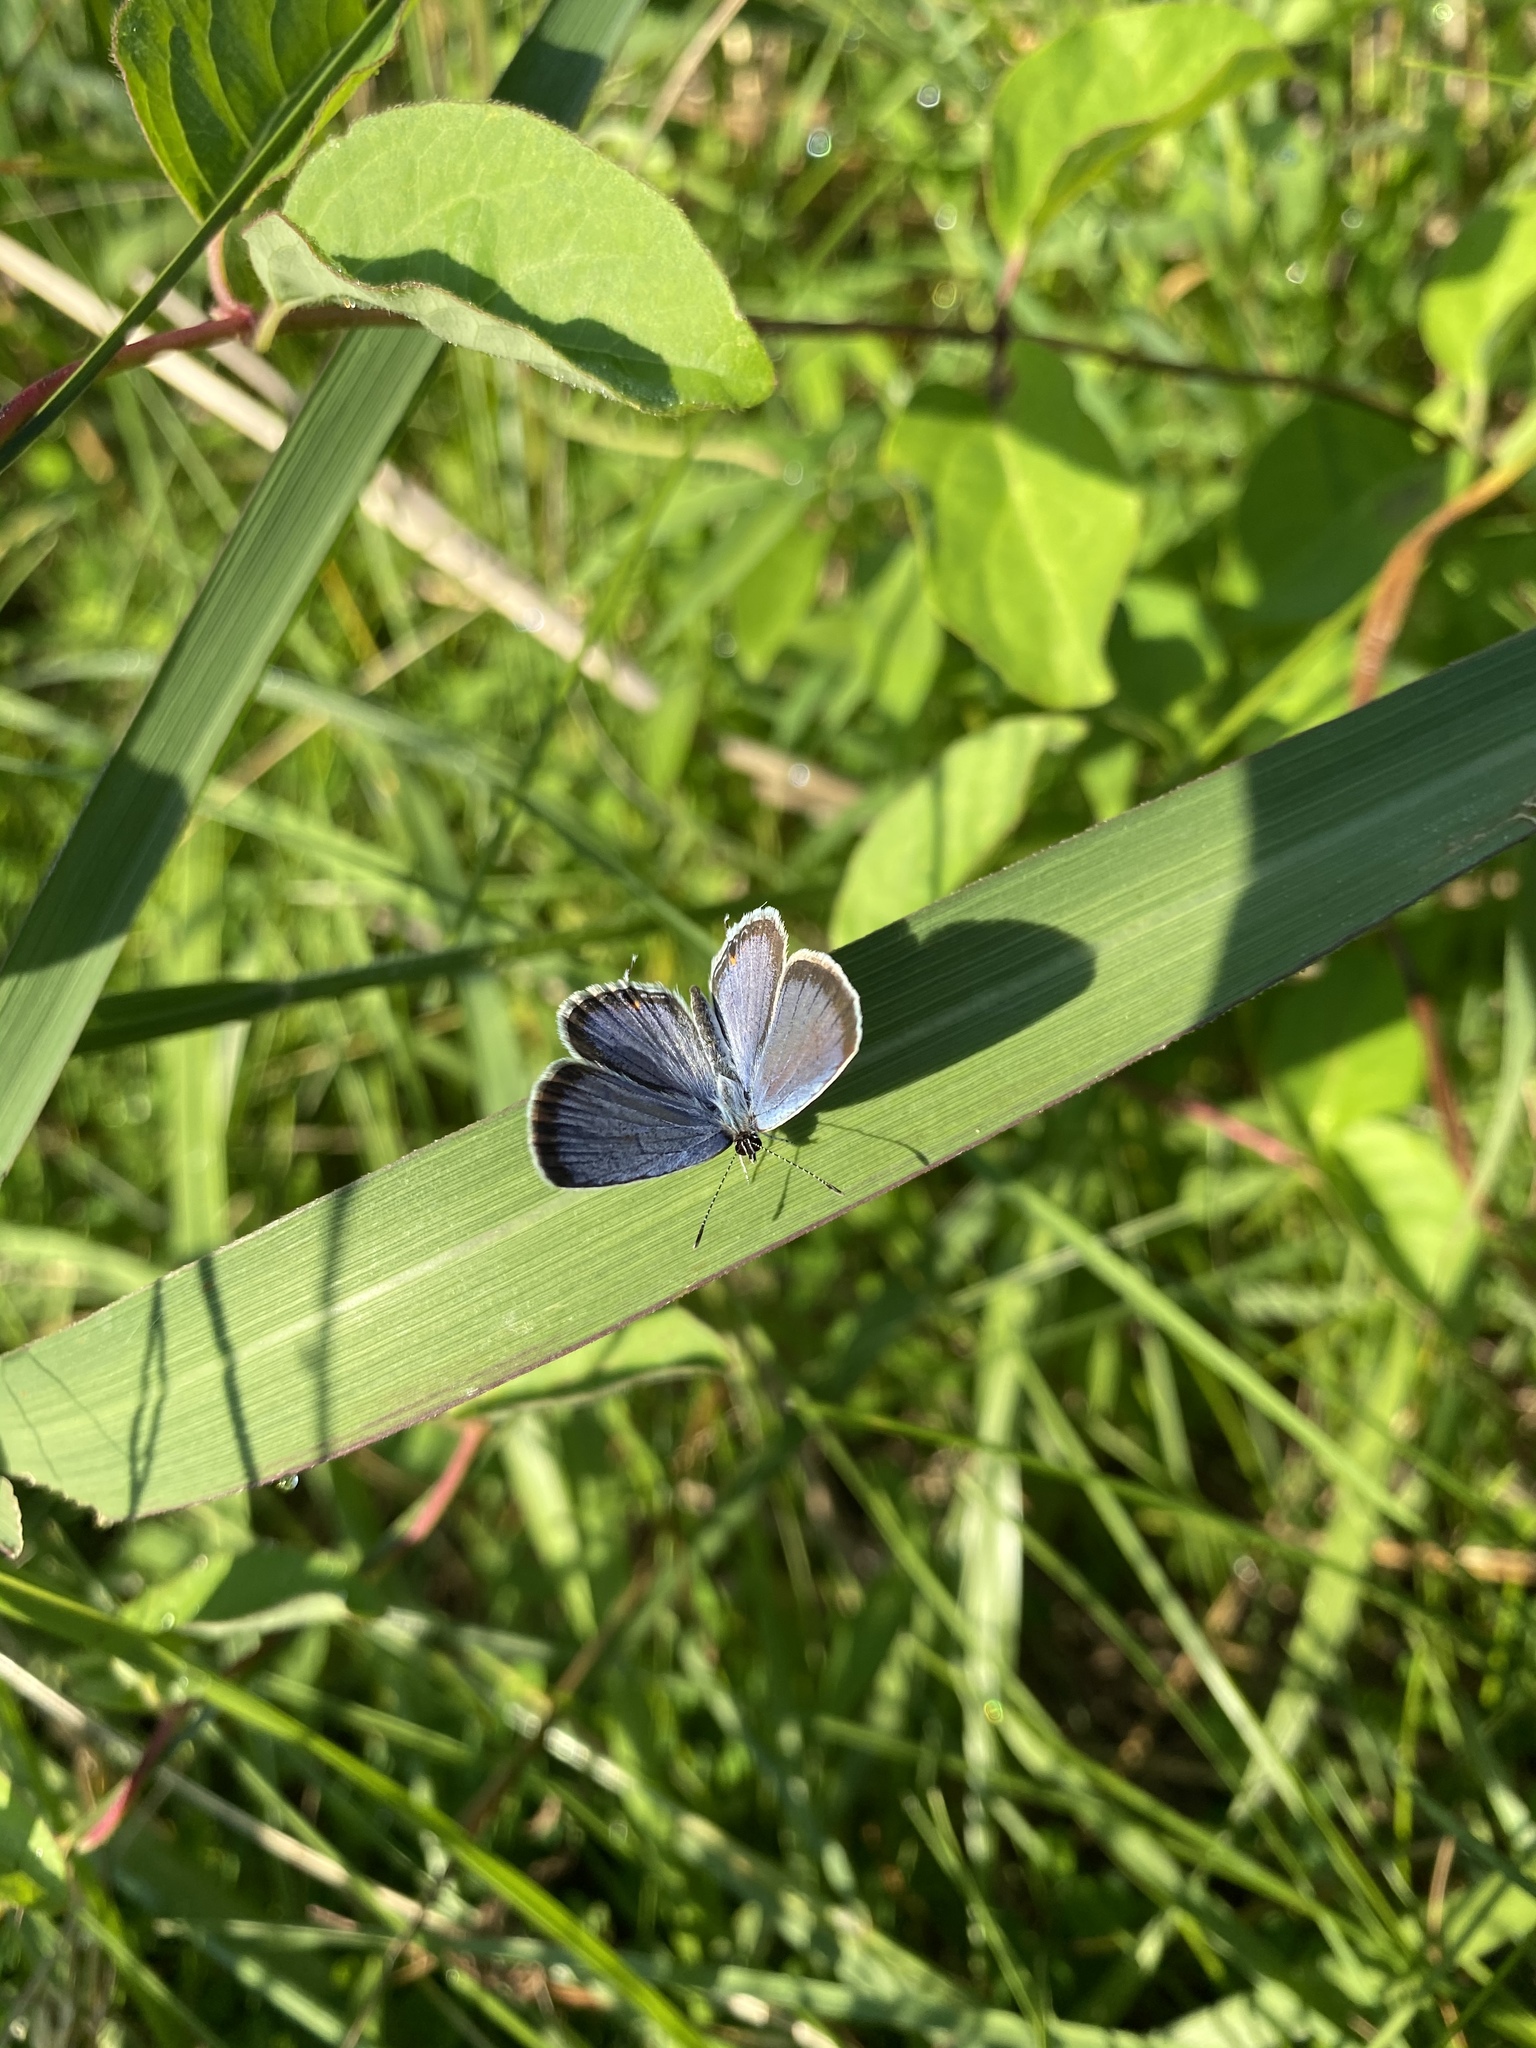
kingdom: Animalia
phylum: Arthropoda
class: Insecta
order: Lepidoptera
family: Lycaenidae
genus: Elkalyce
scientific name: Elkalyce comyntas
